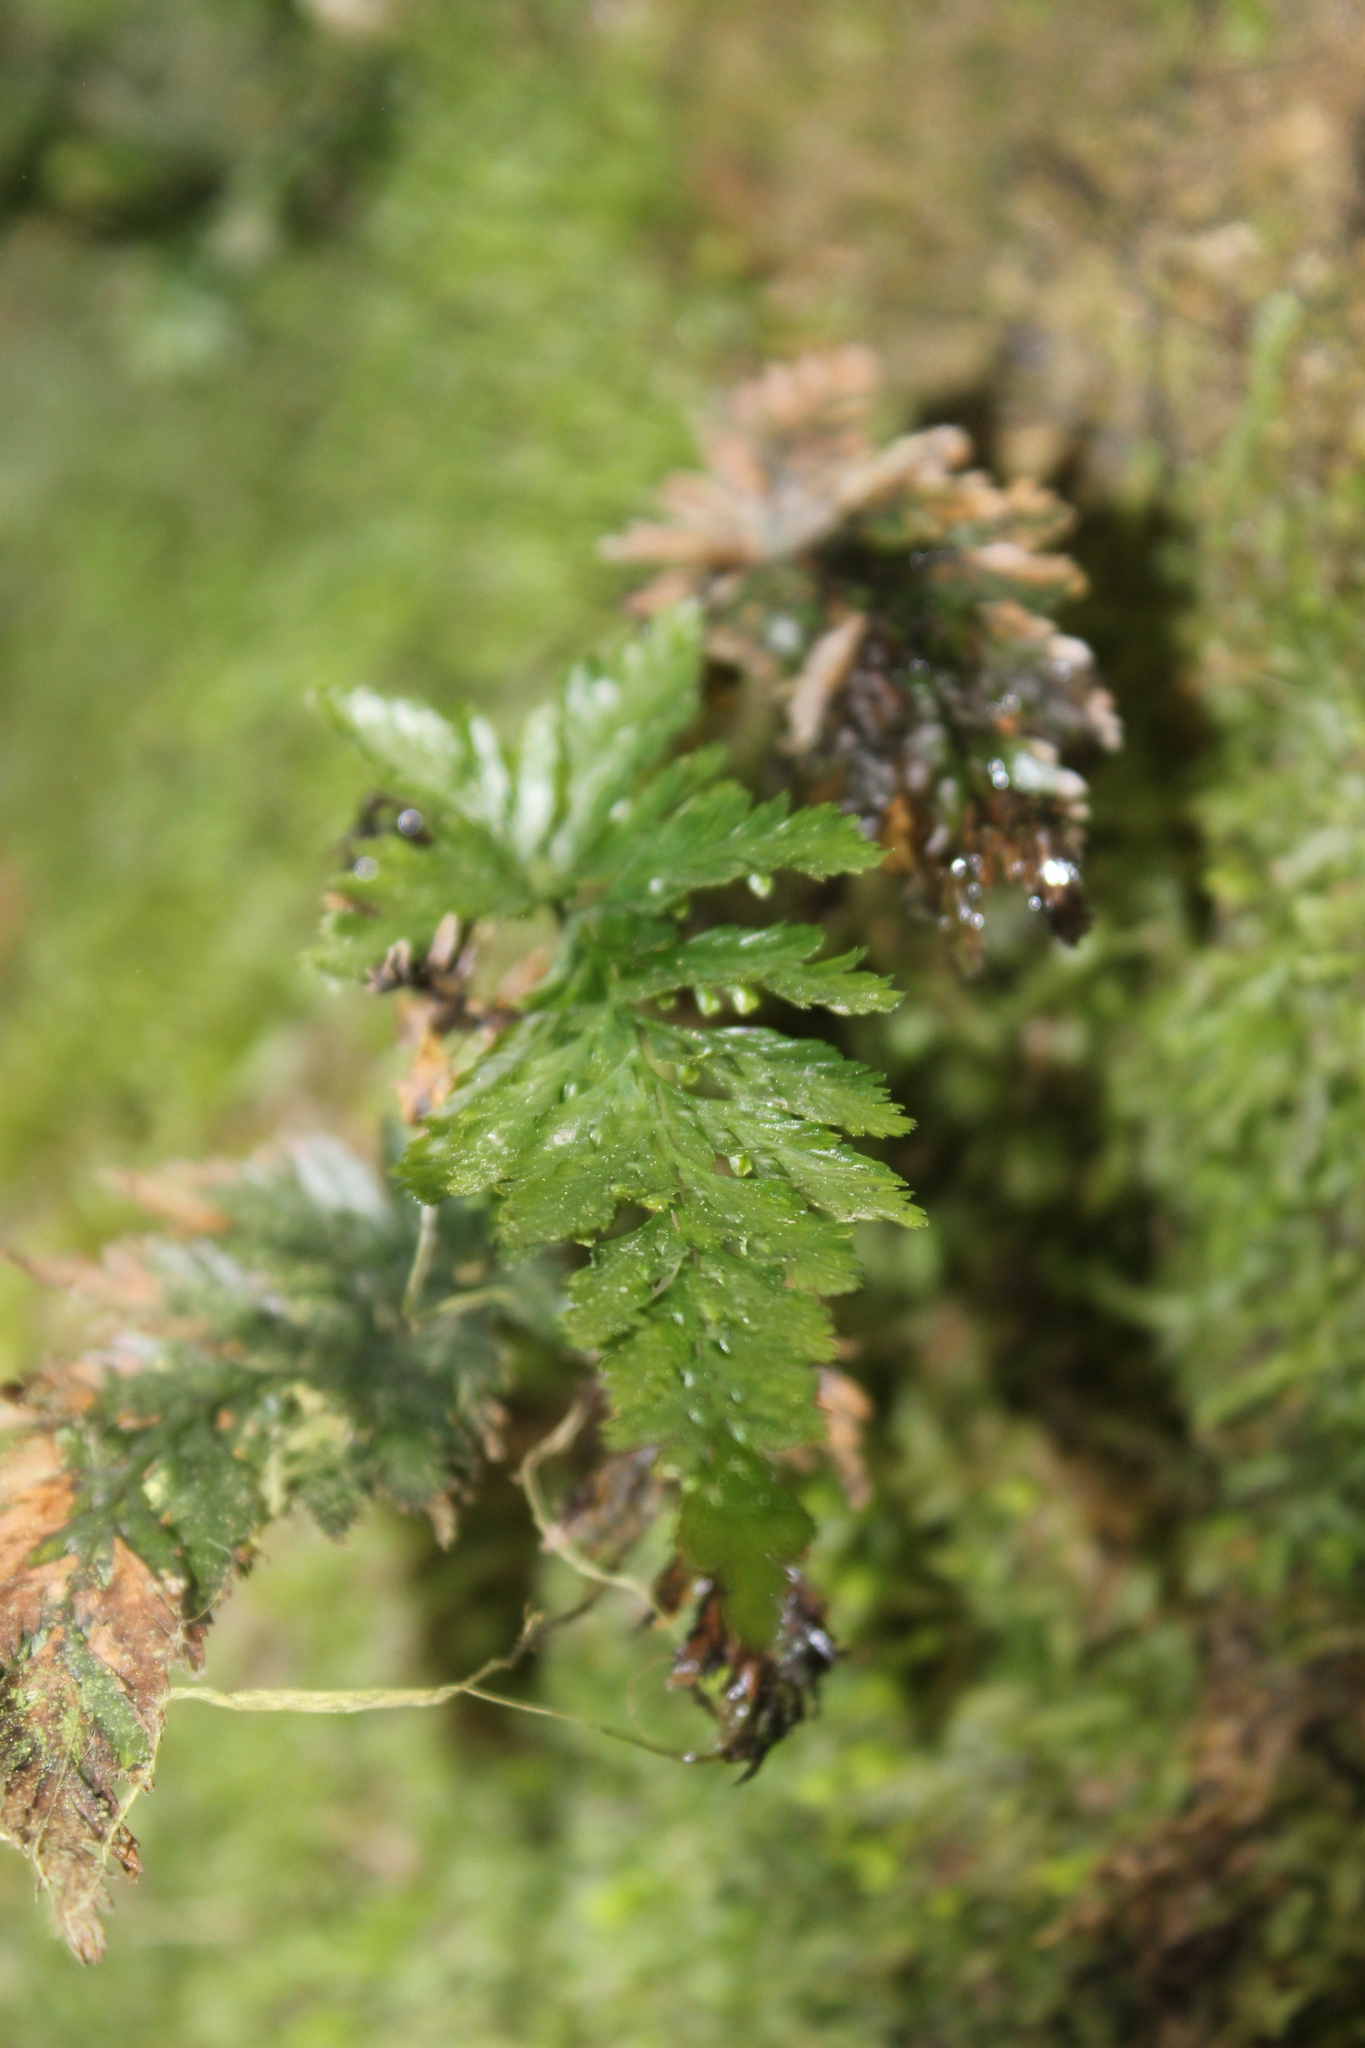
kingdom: Plantae
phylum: Tracheophyta
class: Polypodiopsida
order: Hymenophyllales
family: Hymenophyllaceae
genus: Abrodictyum
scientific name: Abrodictyum elongatum
